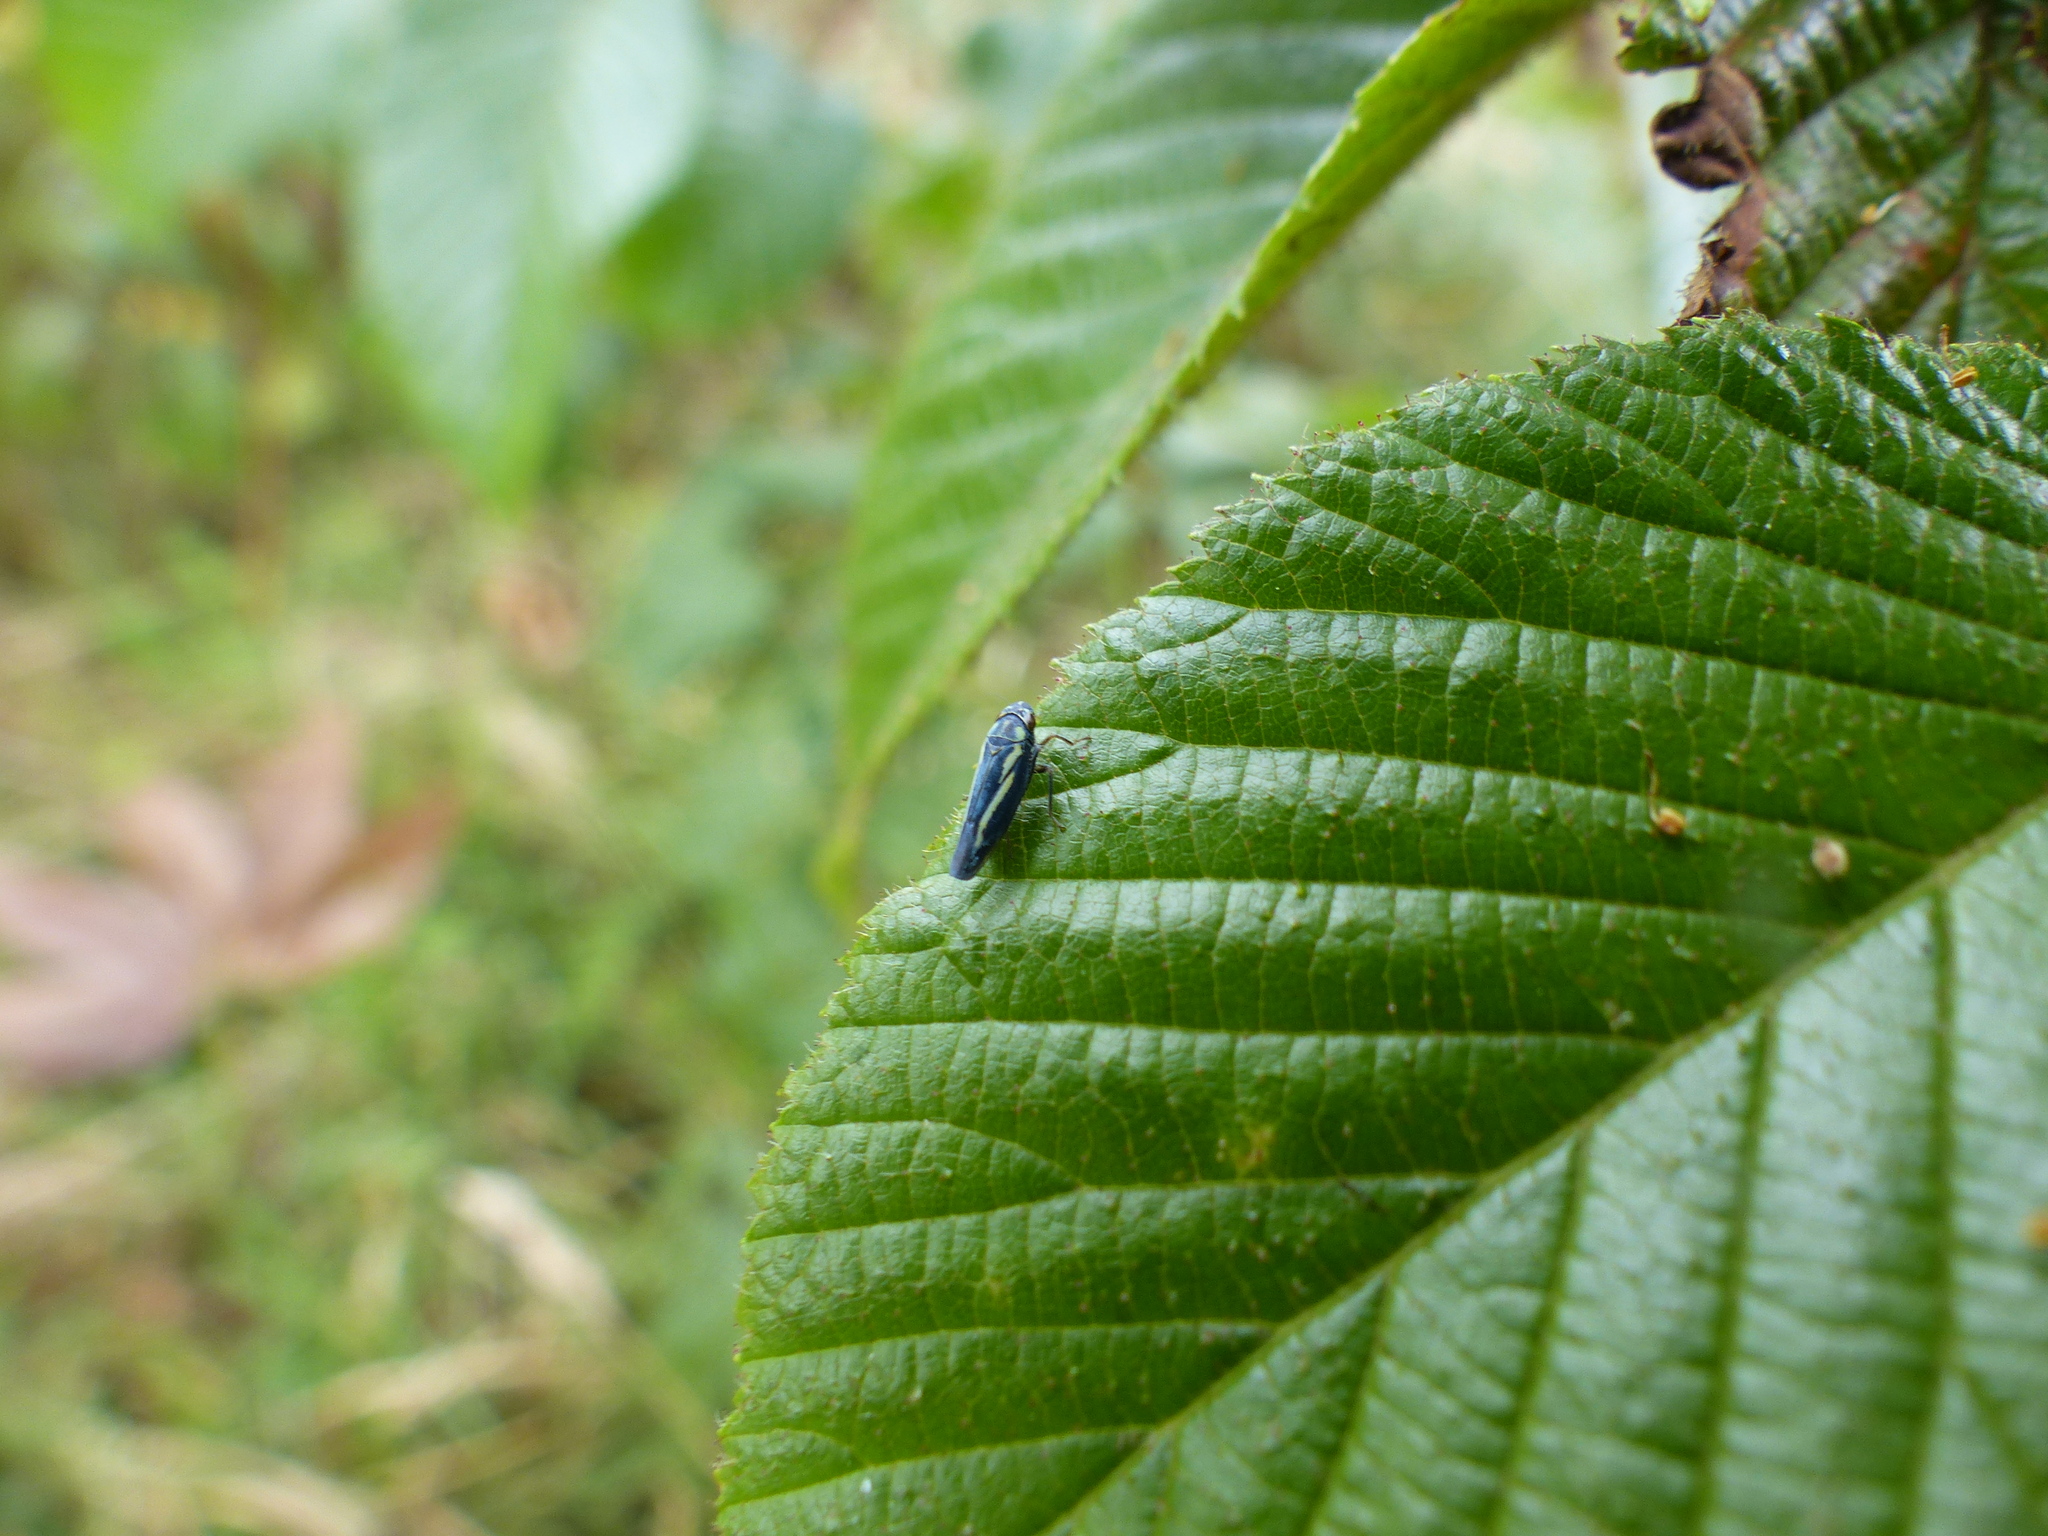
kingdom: Animalia
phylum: Arthropoda
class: Insecta
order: Hemiptera
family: Cicadellidae
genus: Borogonalia
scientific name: Borogonalia impressifrons
